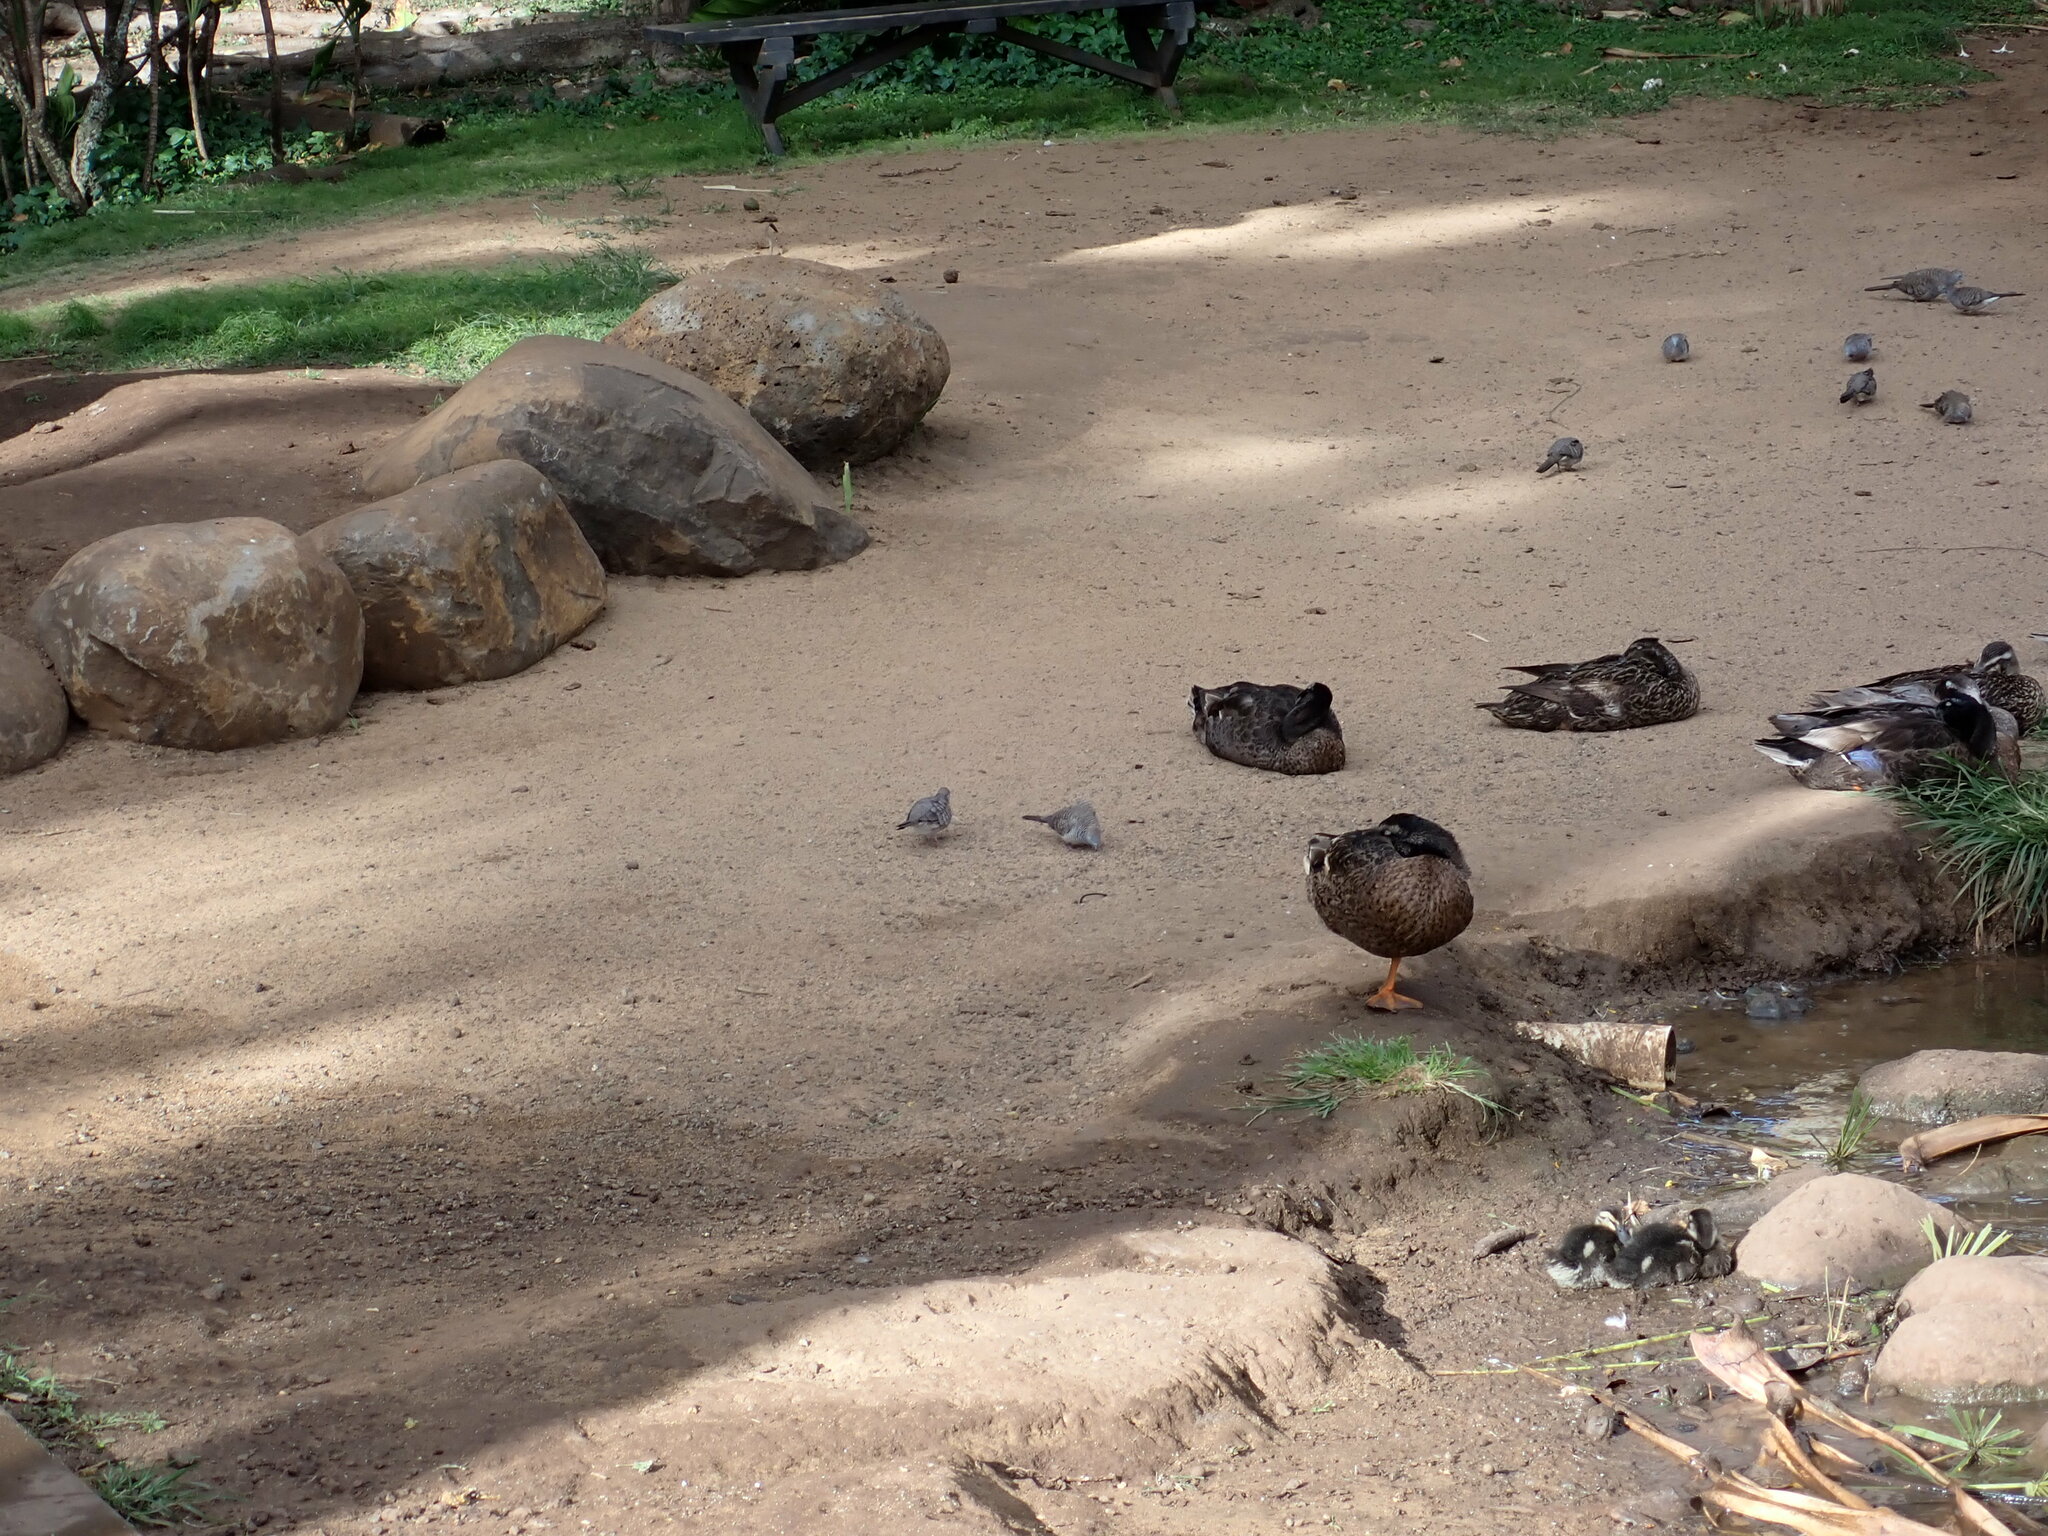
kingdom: Animalia
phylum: Chordata
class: Aves
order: Columbiformes
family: Columbidae
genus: Geopelia
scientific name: Geopelia striata
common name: Zebra dove
